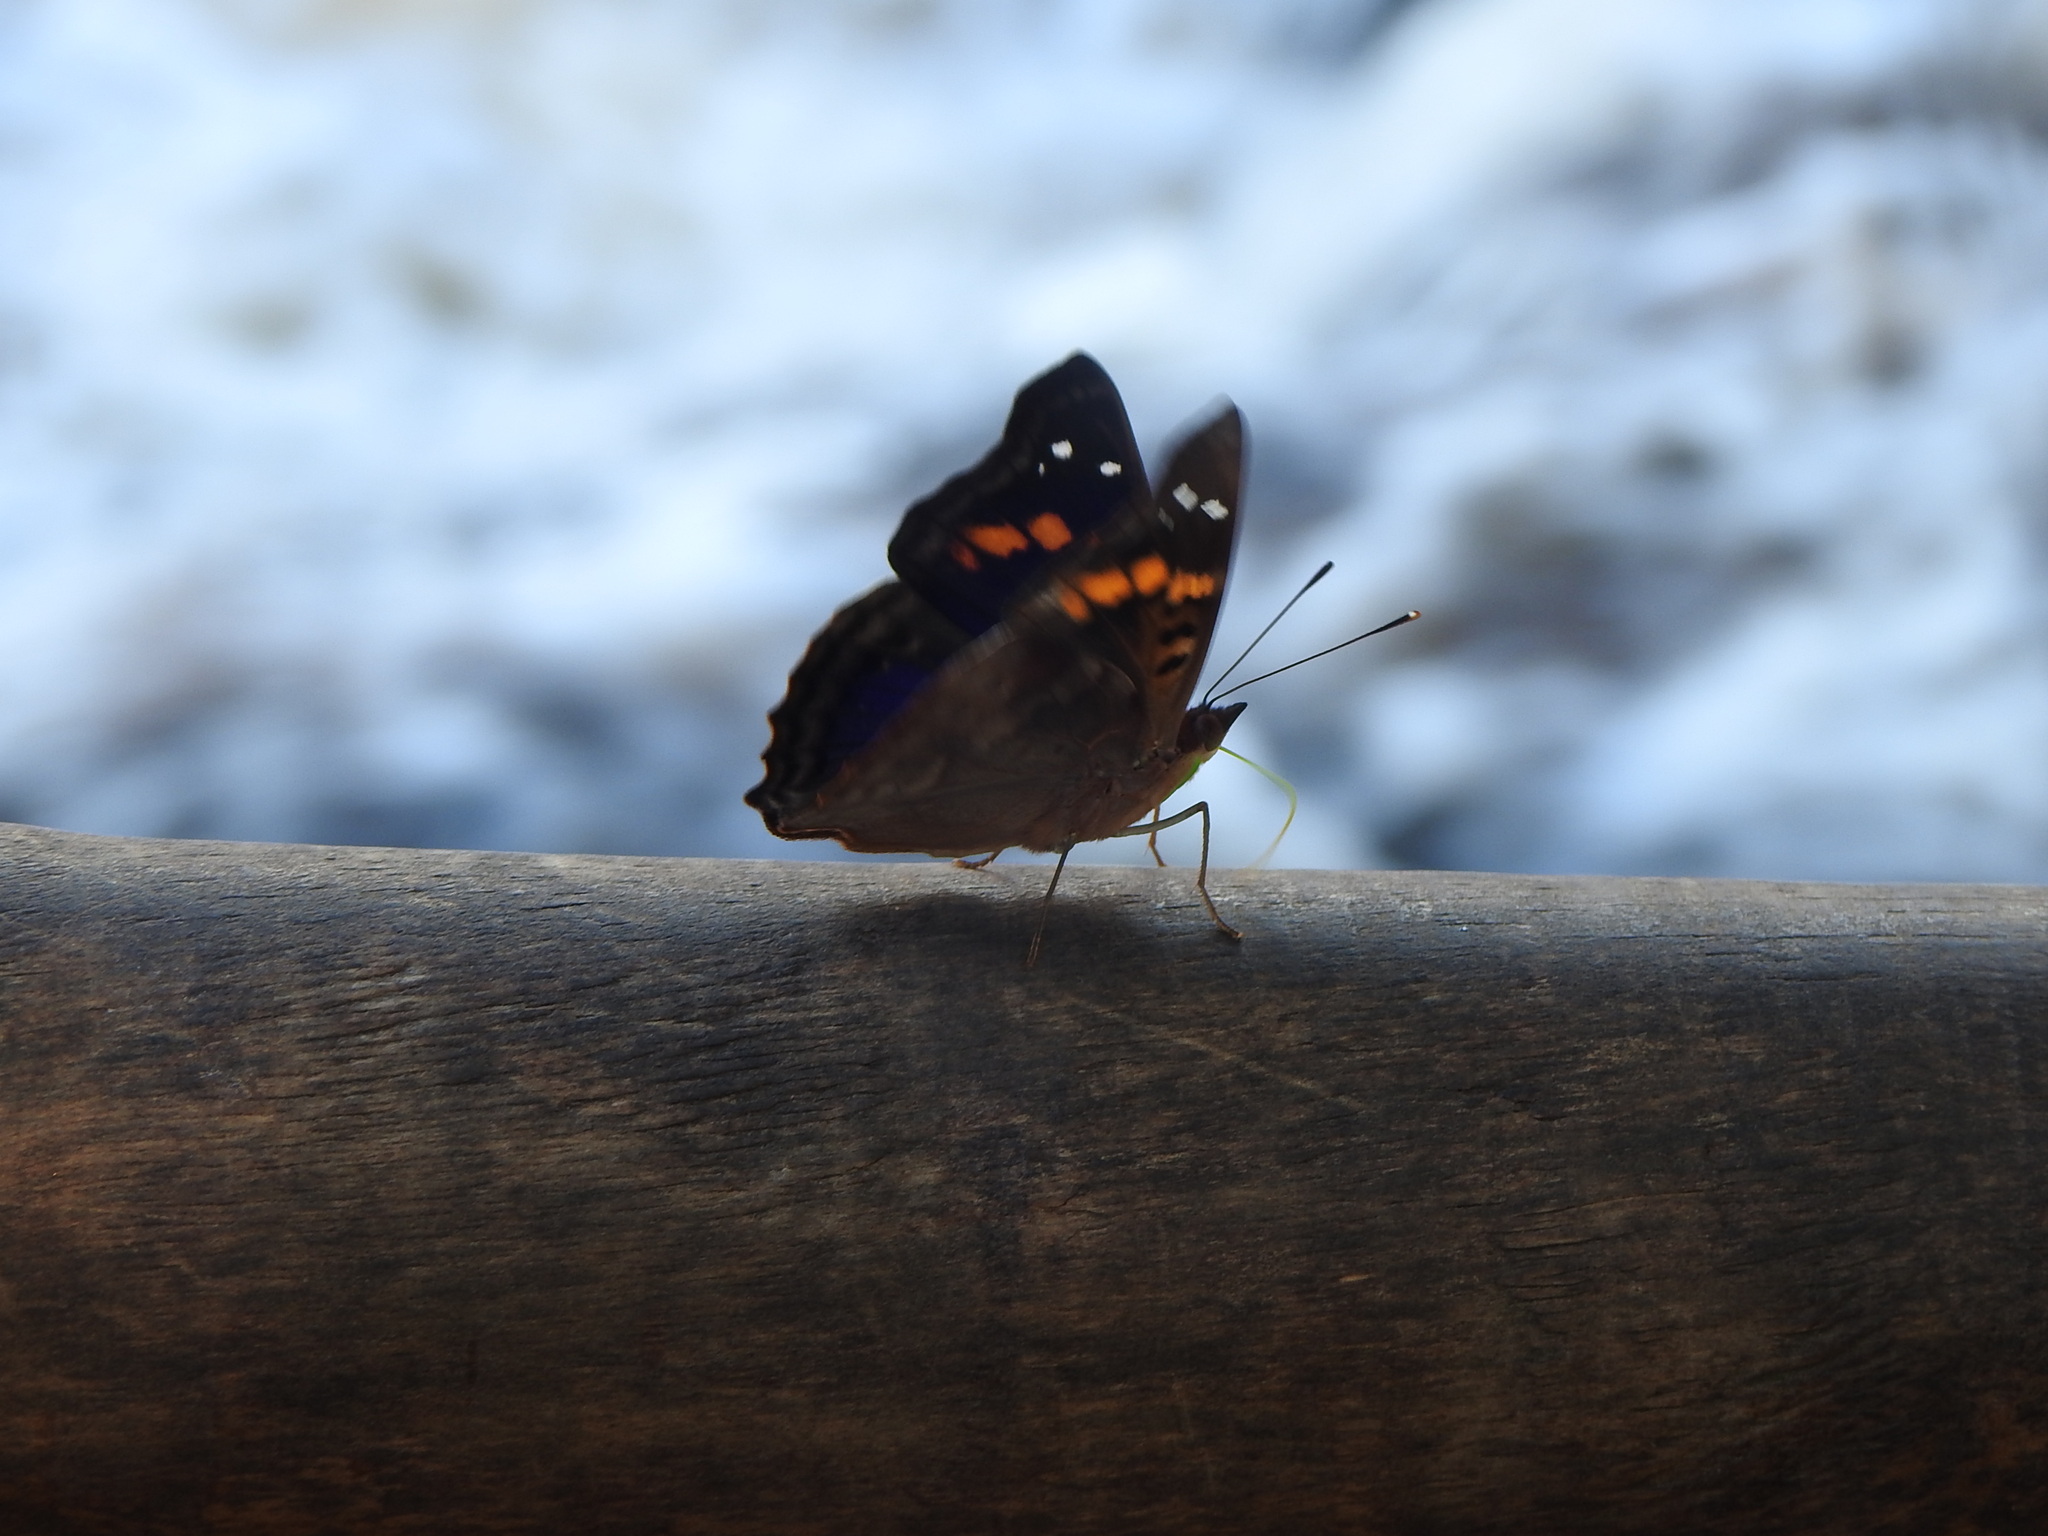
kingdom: Animalia
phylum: Arthropoda
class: Insecta
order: Lepidoptera
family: Nymphalidae
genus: Doxocopa
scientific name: Doxocopa agathina
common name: Agathina emperor
